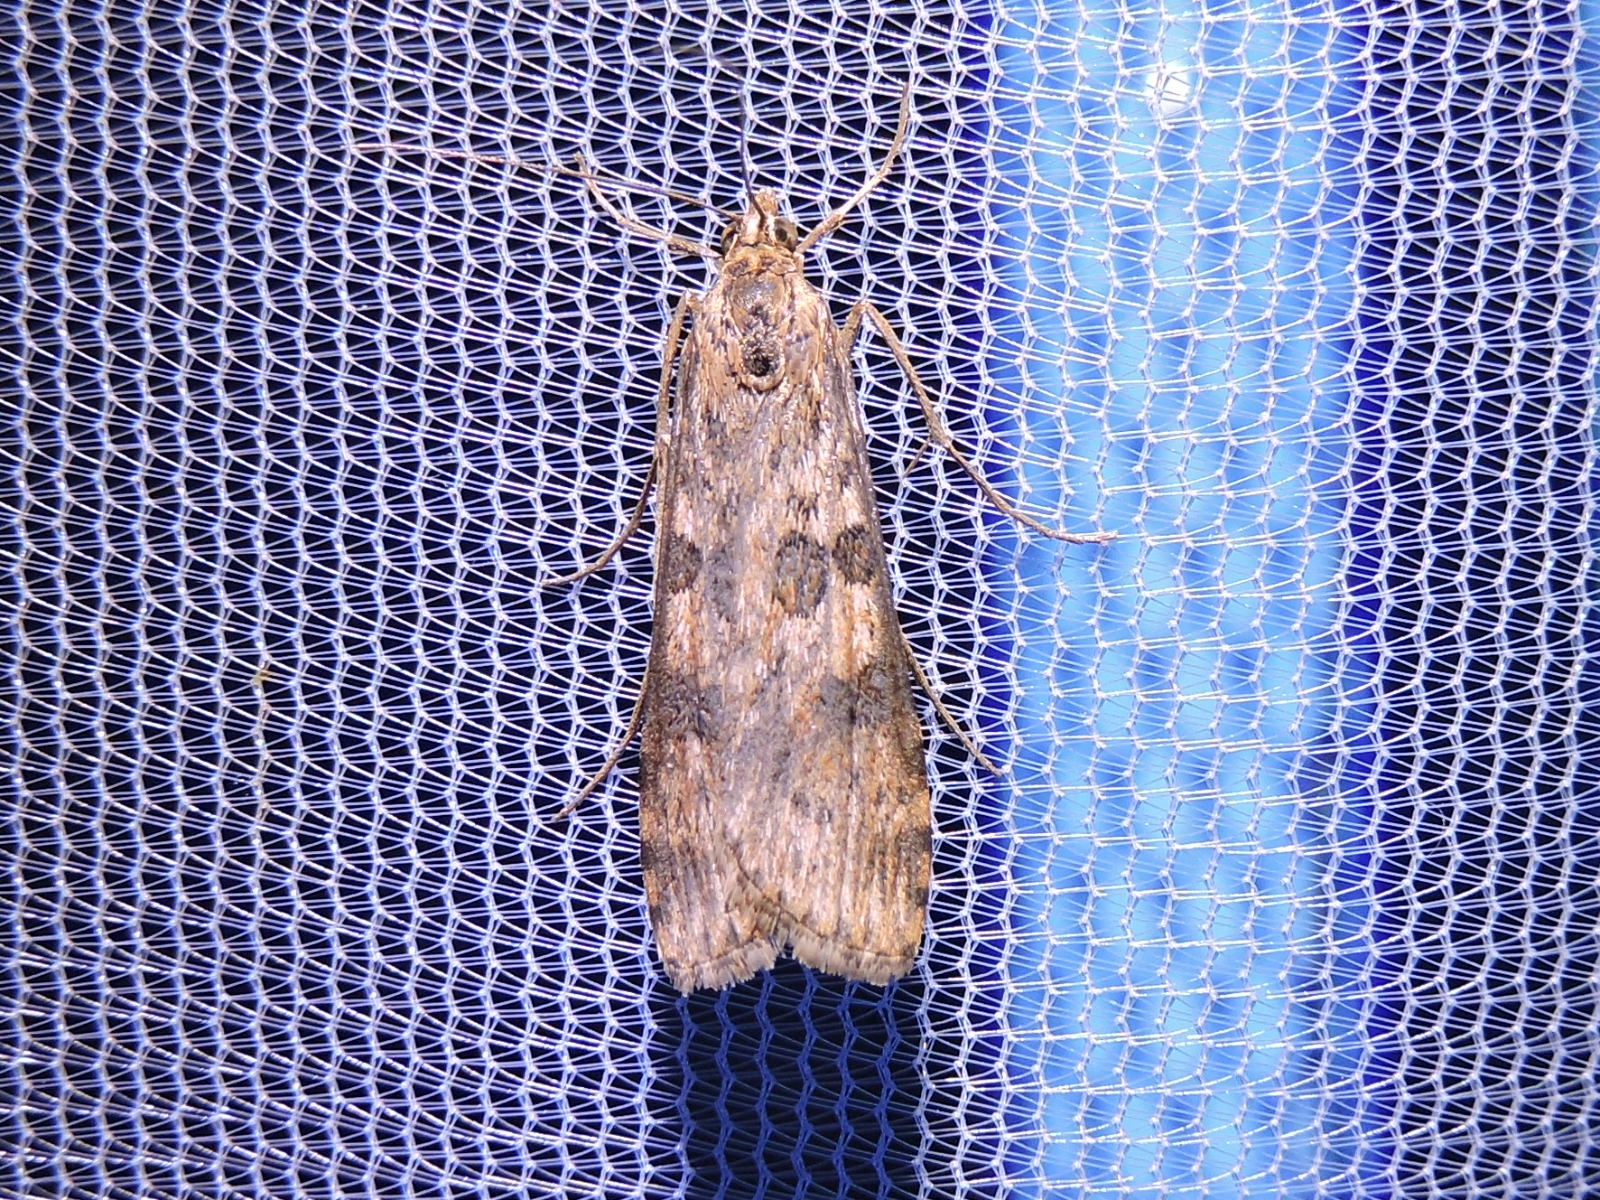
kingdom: Animalia
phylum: Arthropoda
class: Insecta
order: Lepidoptera
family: Crambidae
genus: Nomophila
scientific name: Nomophila nearctica
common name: American rush veneer
